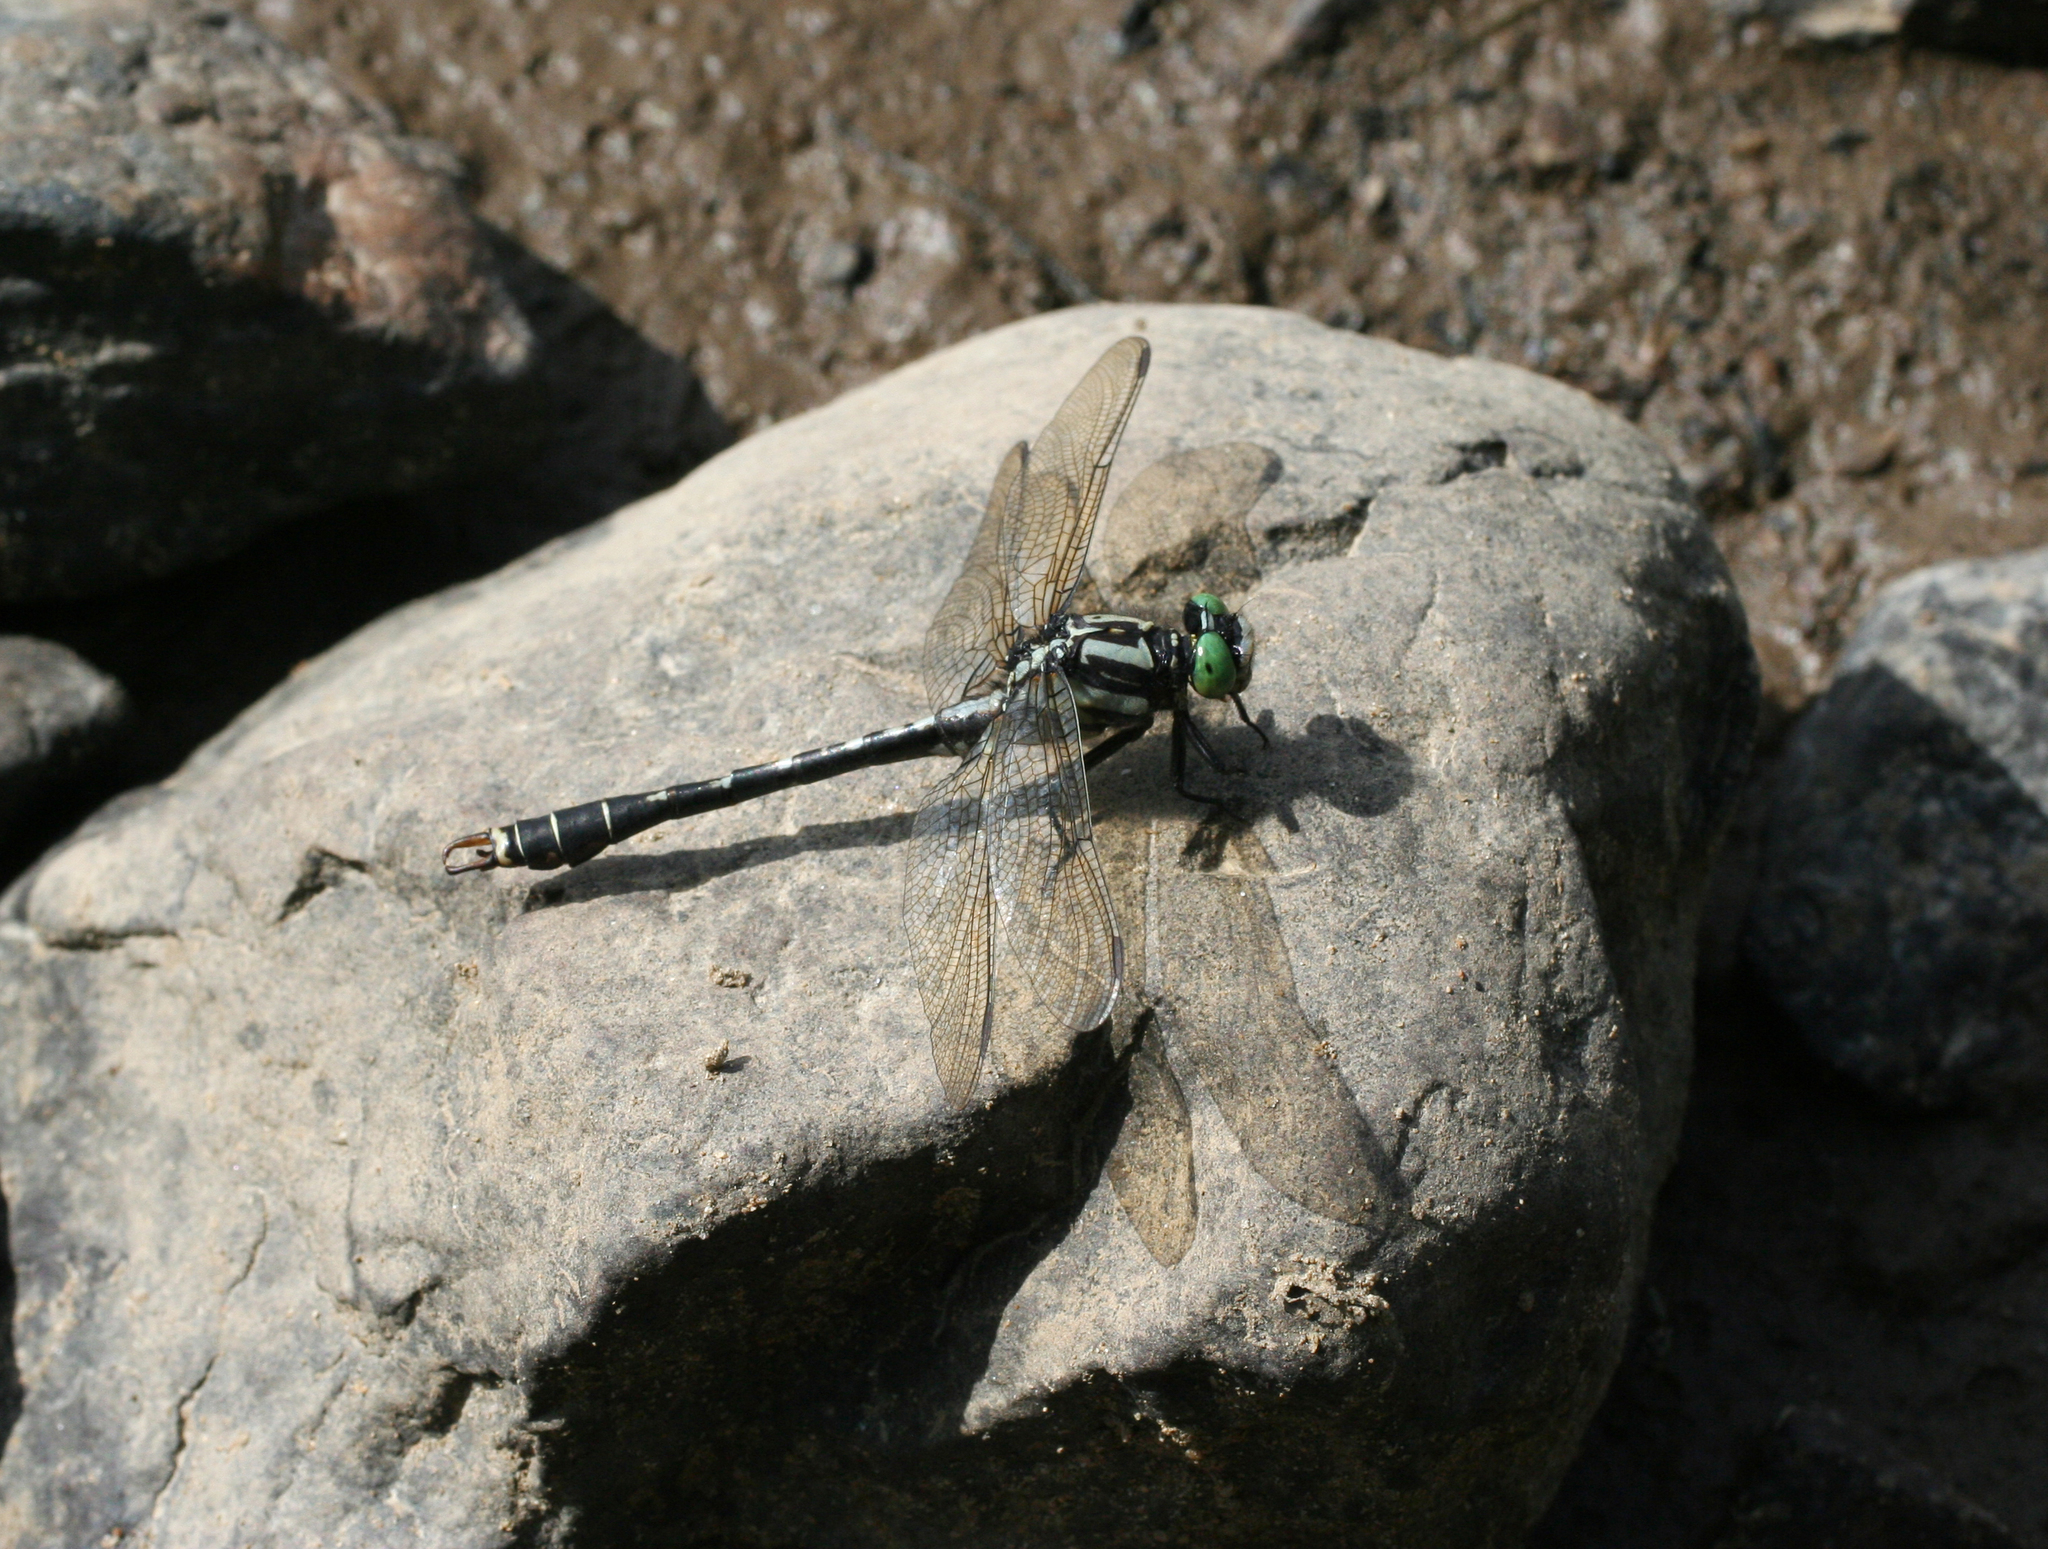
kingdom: Animalia
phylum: Arthropoda
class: Insecta
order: Odonata
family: Gomphidae
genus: Nihonogomphus
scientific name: Nihonogomphus ruptus
